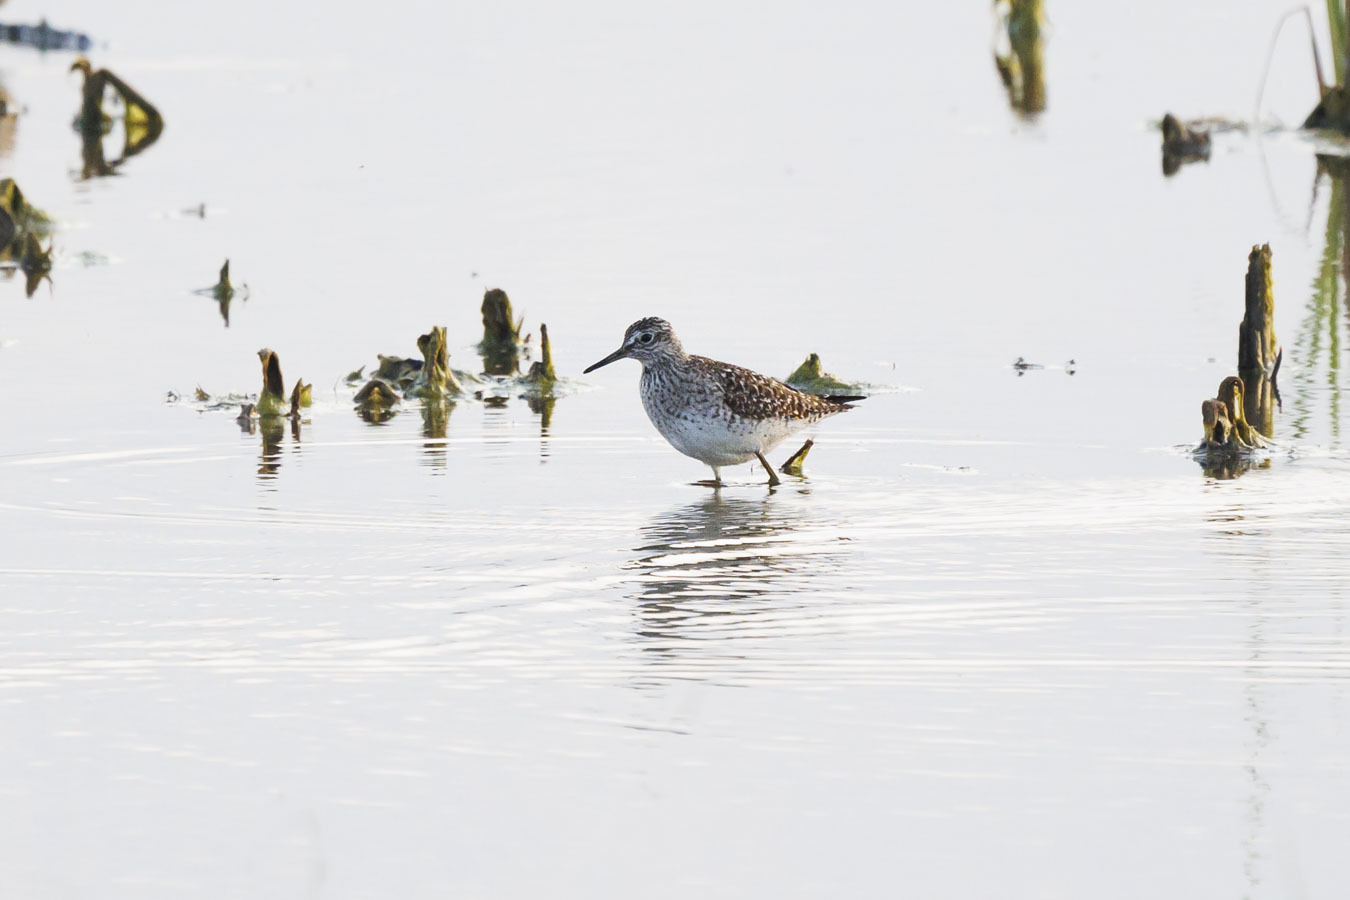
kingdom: Animalia
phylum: Chordata
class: Aves
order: Charadriiformes
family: Scolopacidae
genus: Tringa
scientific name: Tringa glareola
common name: Wood sandpiper
